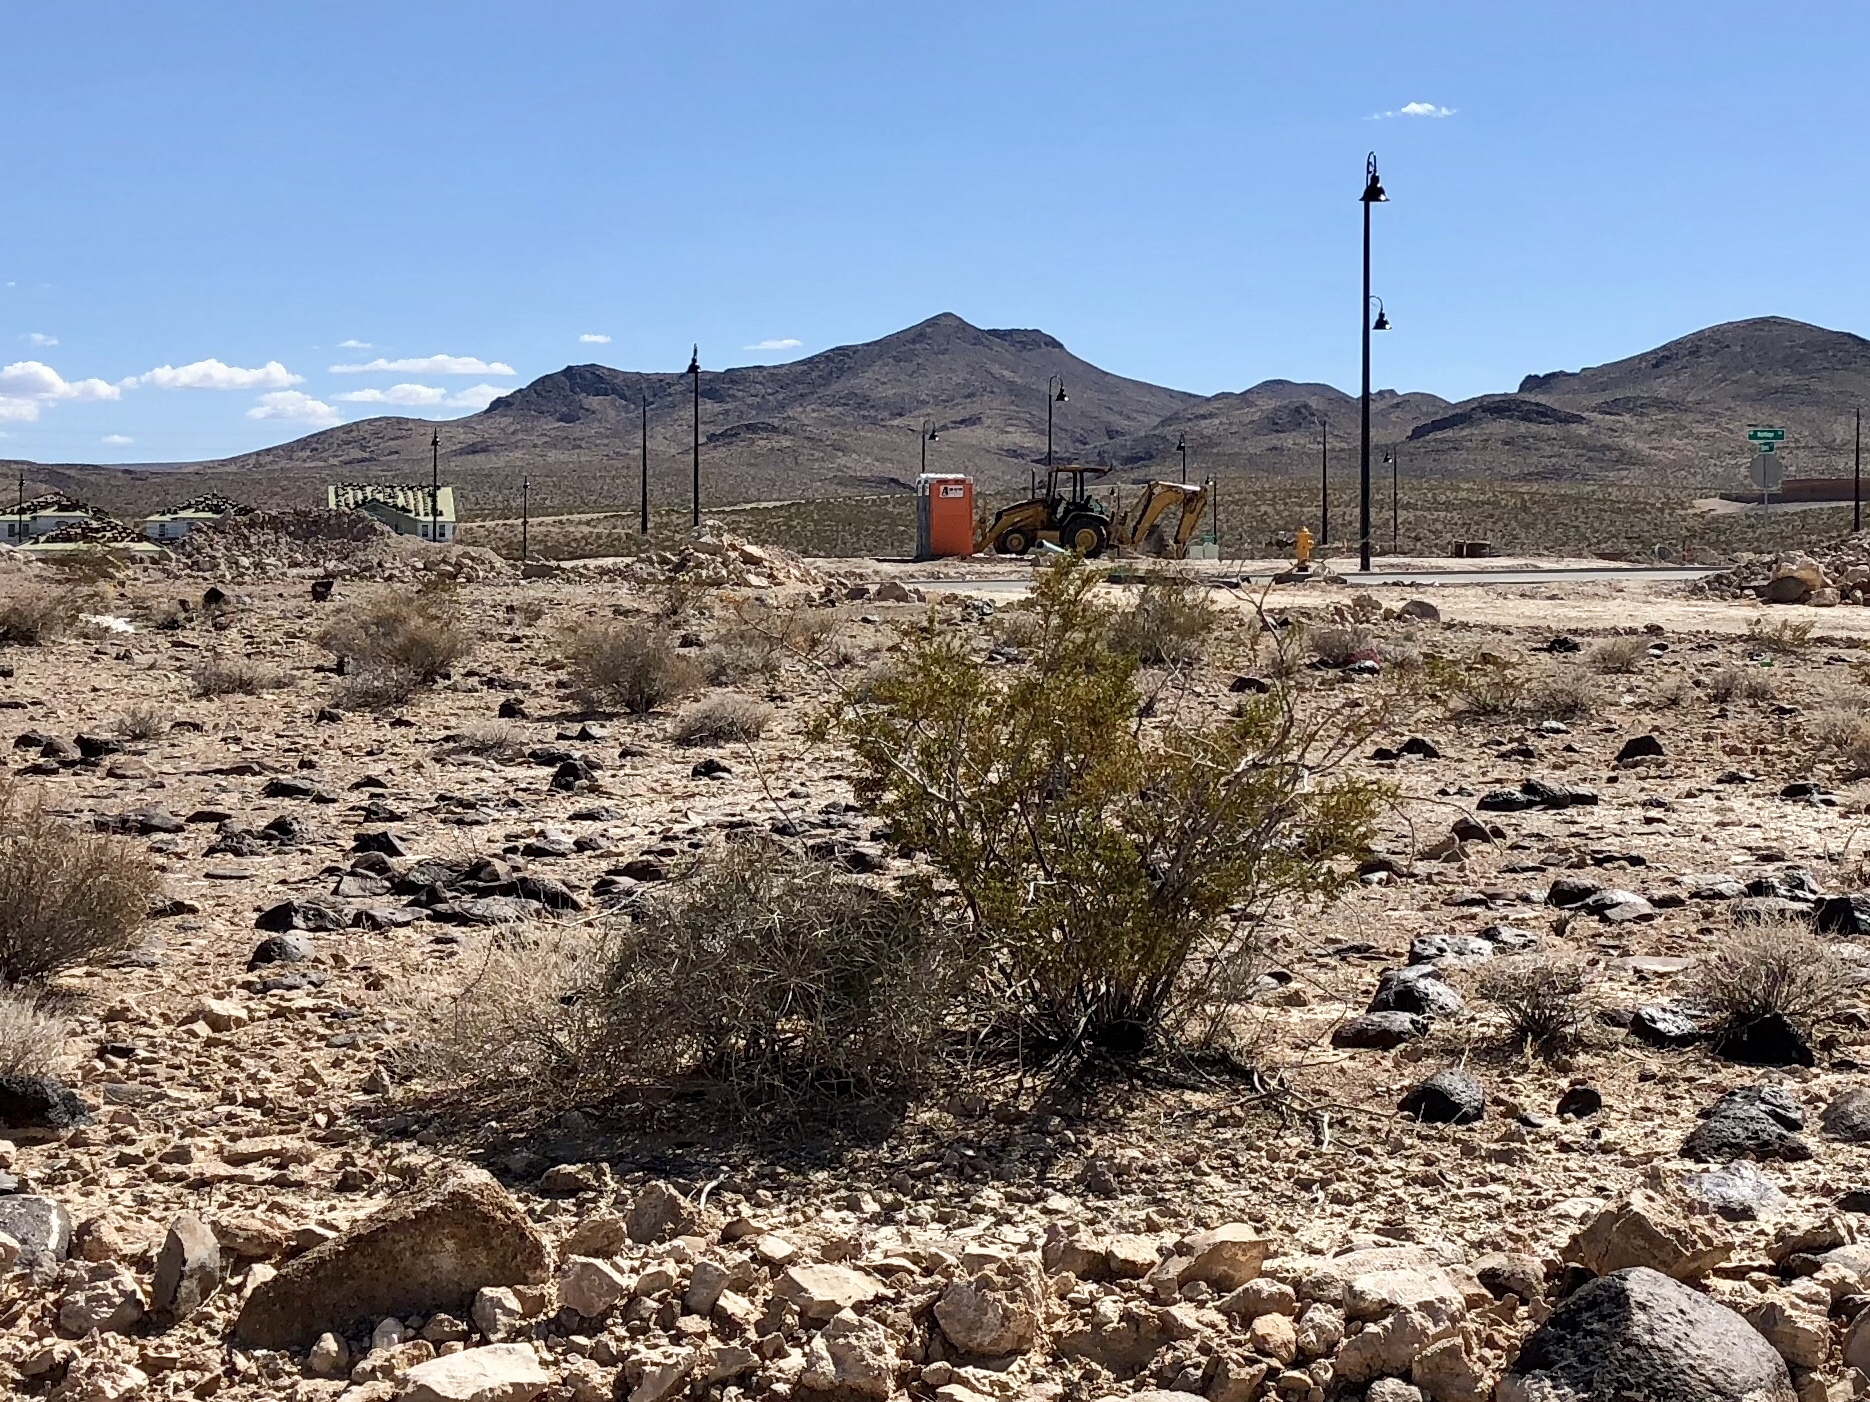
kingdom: Plantae
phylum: Tracheophyta
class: Magnoliopsida
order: Zygophyllales
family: Zygophyllaceae
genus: Larrea
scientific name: Larrea tridentata
